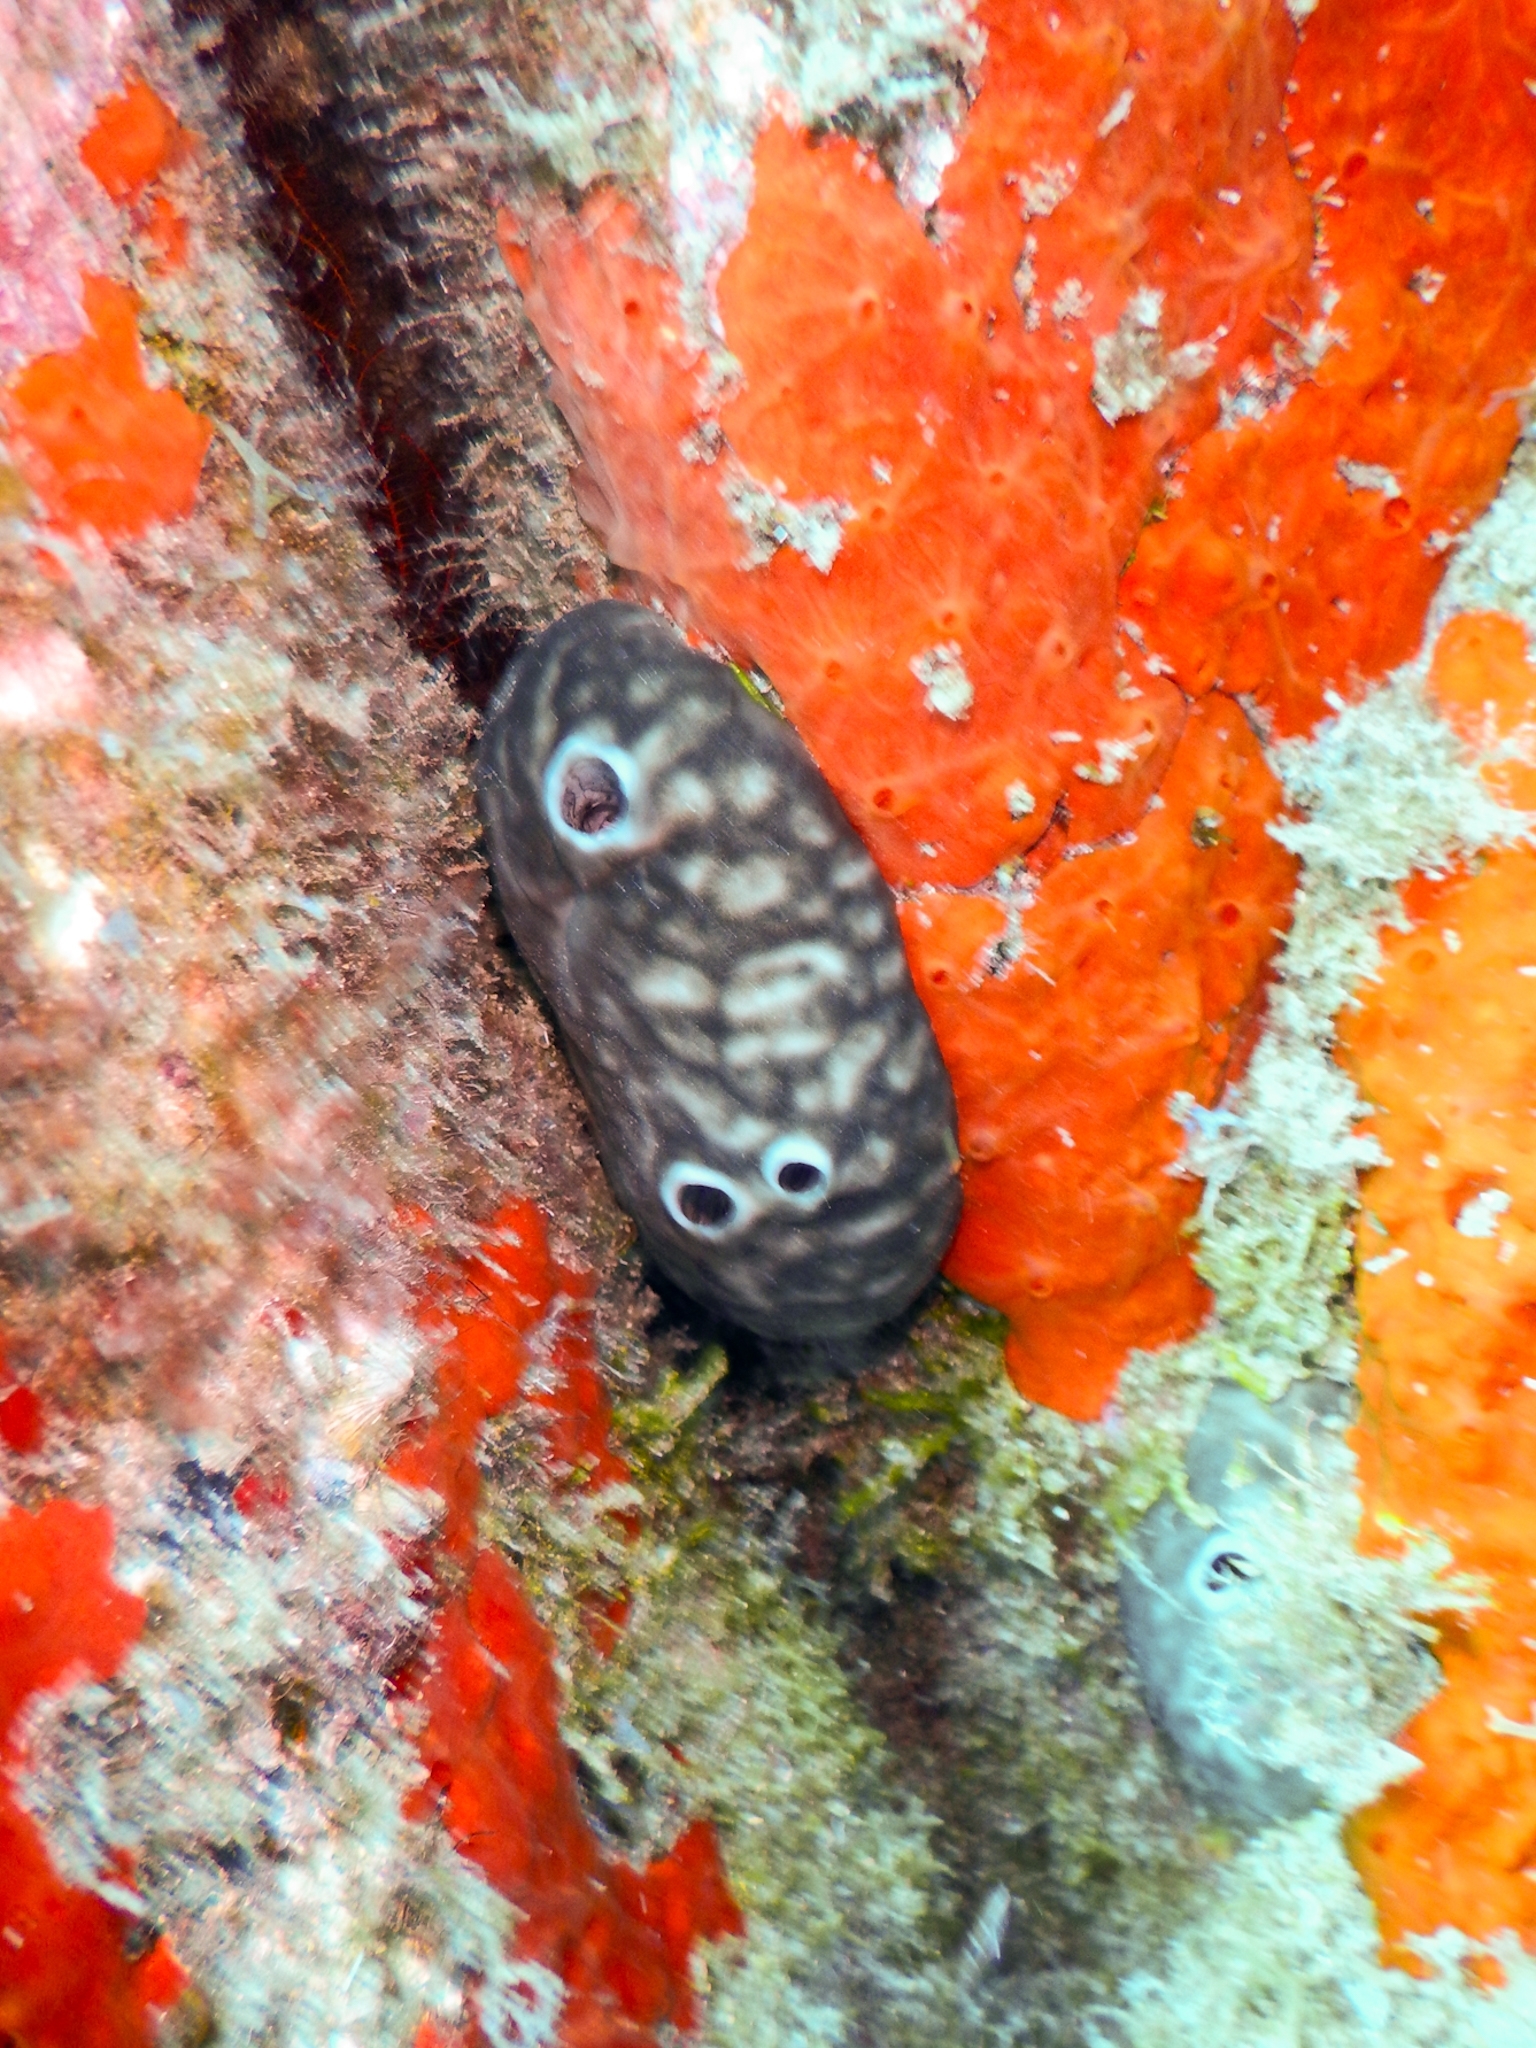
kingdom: Animalia
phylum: Porifera
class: Demospongiae
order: Chondrosiida
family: Chondrosiidae
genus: Chondrosia
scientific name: Chondrosia reniformis
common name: Chicken liver sponge
